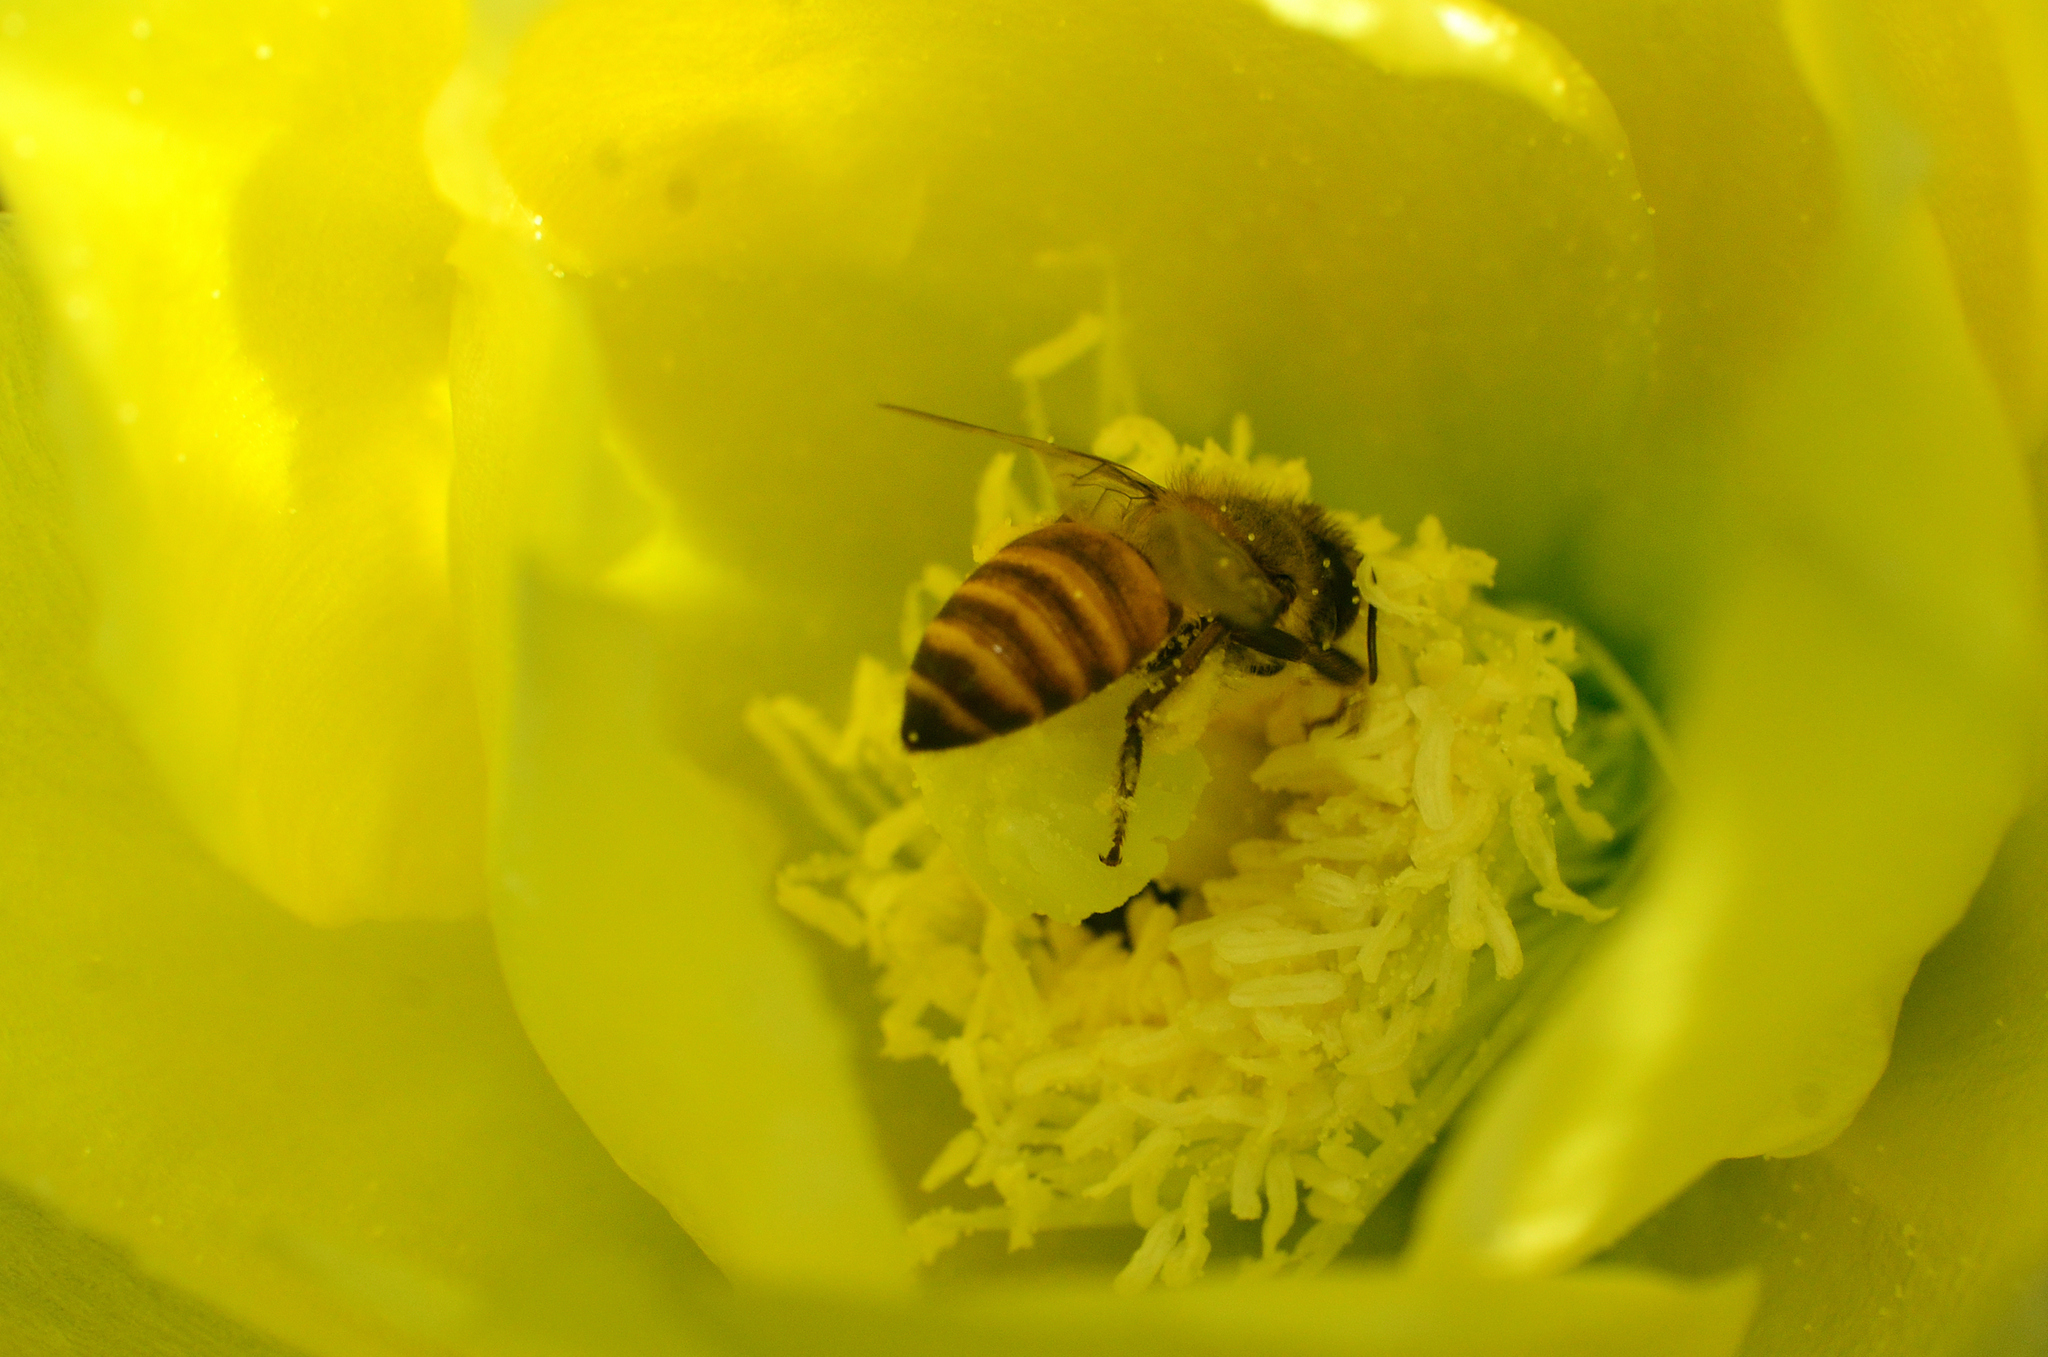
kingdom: Animalia
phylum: Arthropoda
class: Insecta
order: Hymenoptera
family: Apidae
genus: Apis
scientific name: Apis cerana
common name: Honey bee
